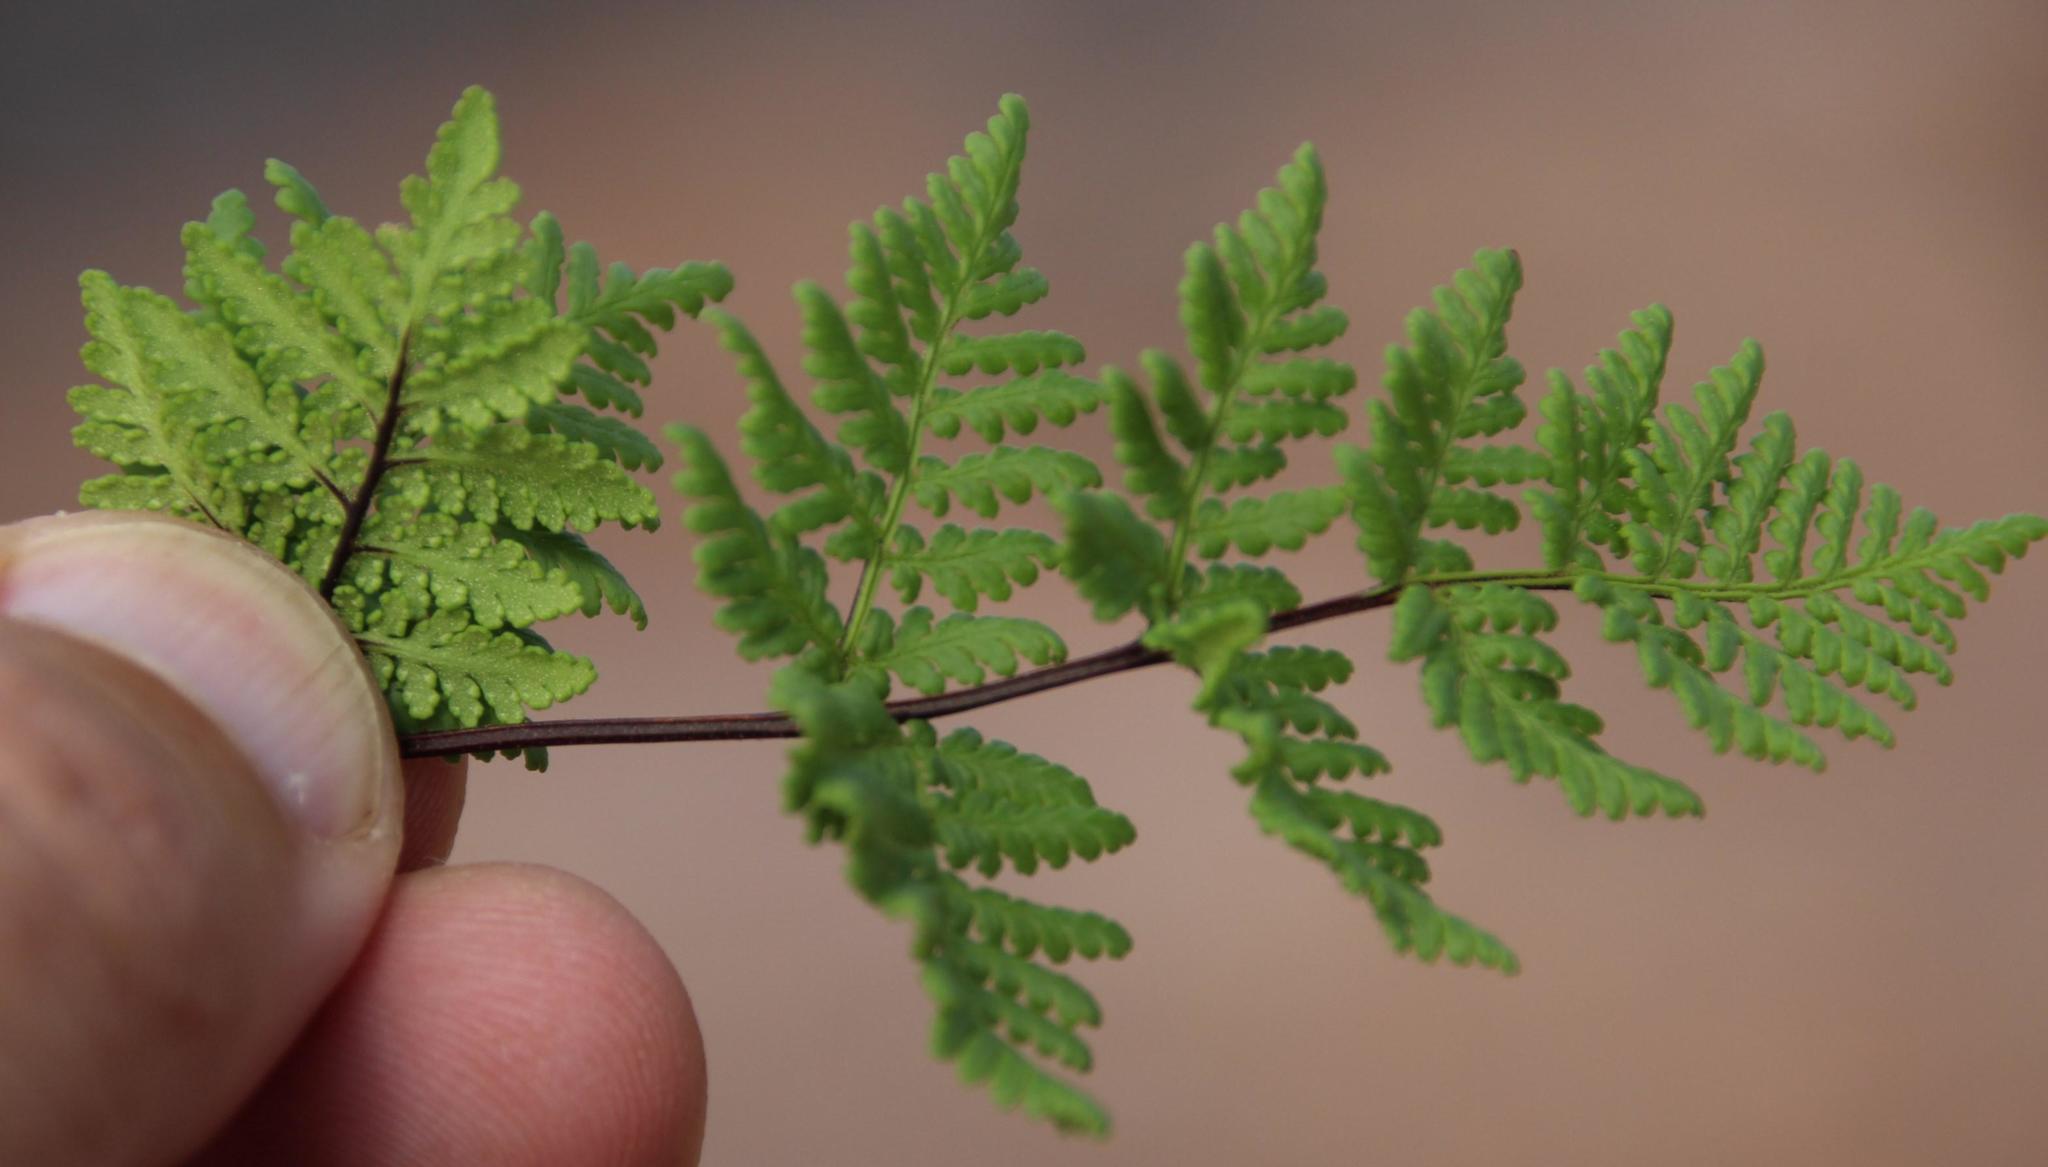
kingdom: Plantae
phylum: Tracheophyta
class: Polypodiopsida
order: Polypodiales
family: Pteridaceae
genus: Cheilanthes
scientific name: Cheilanthes multifida
